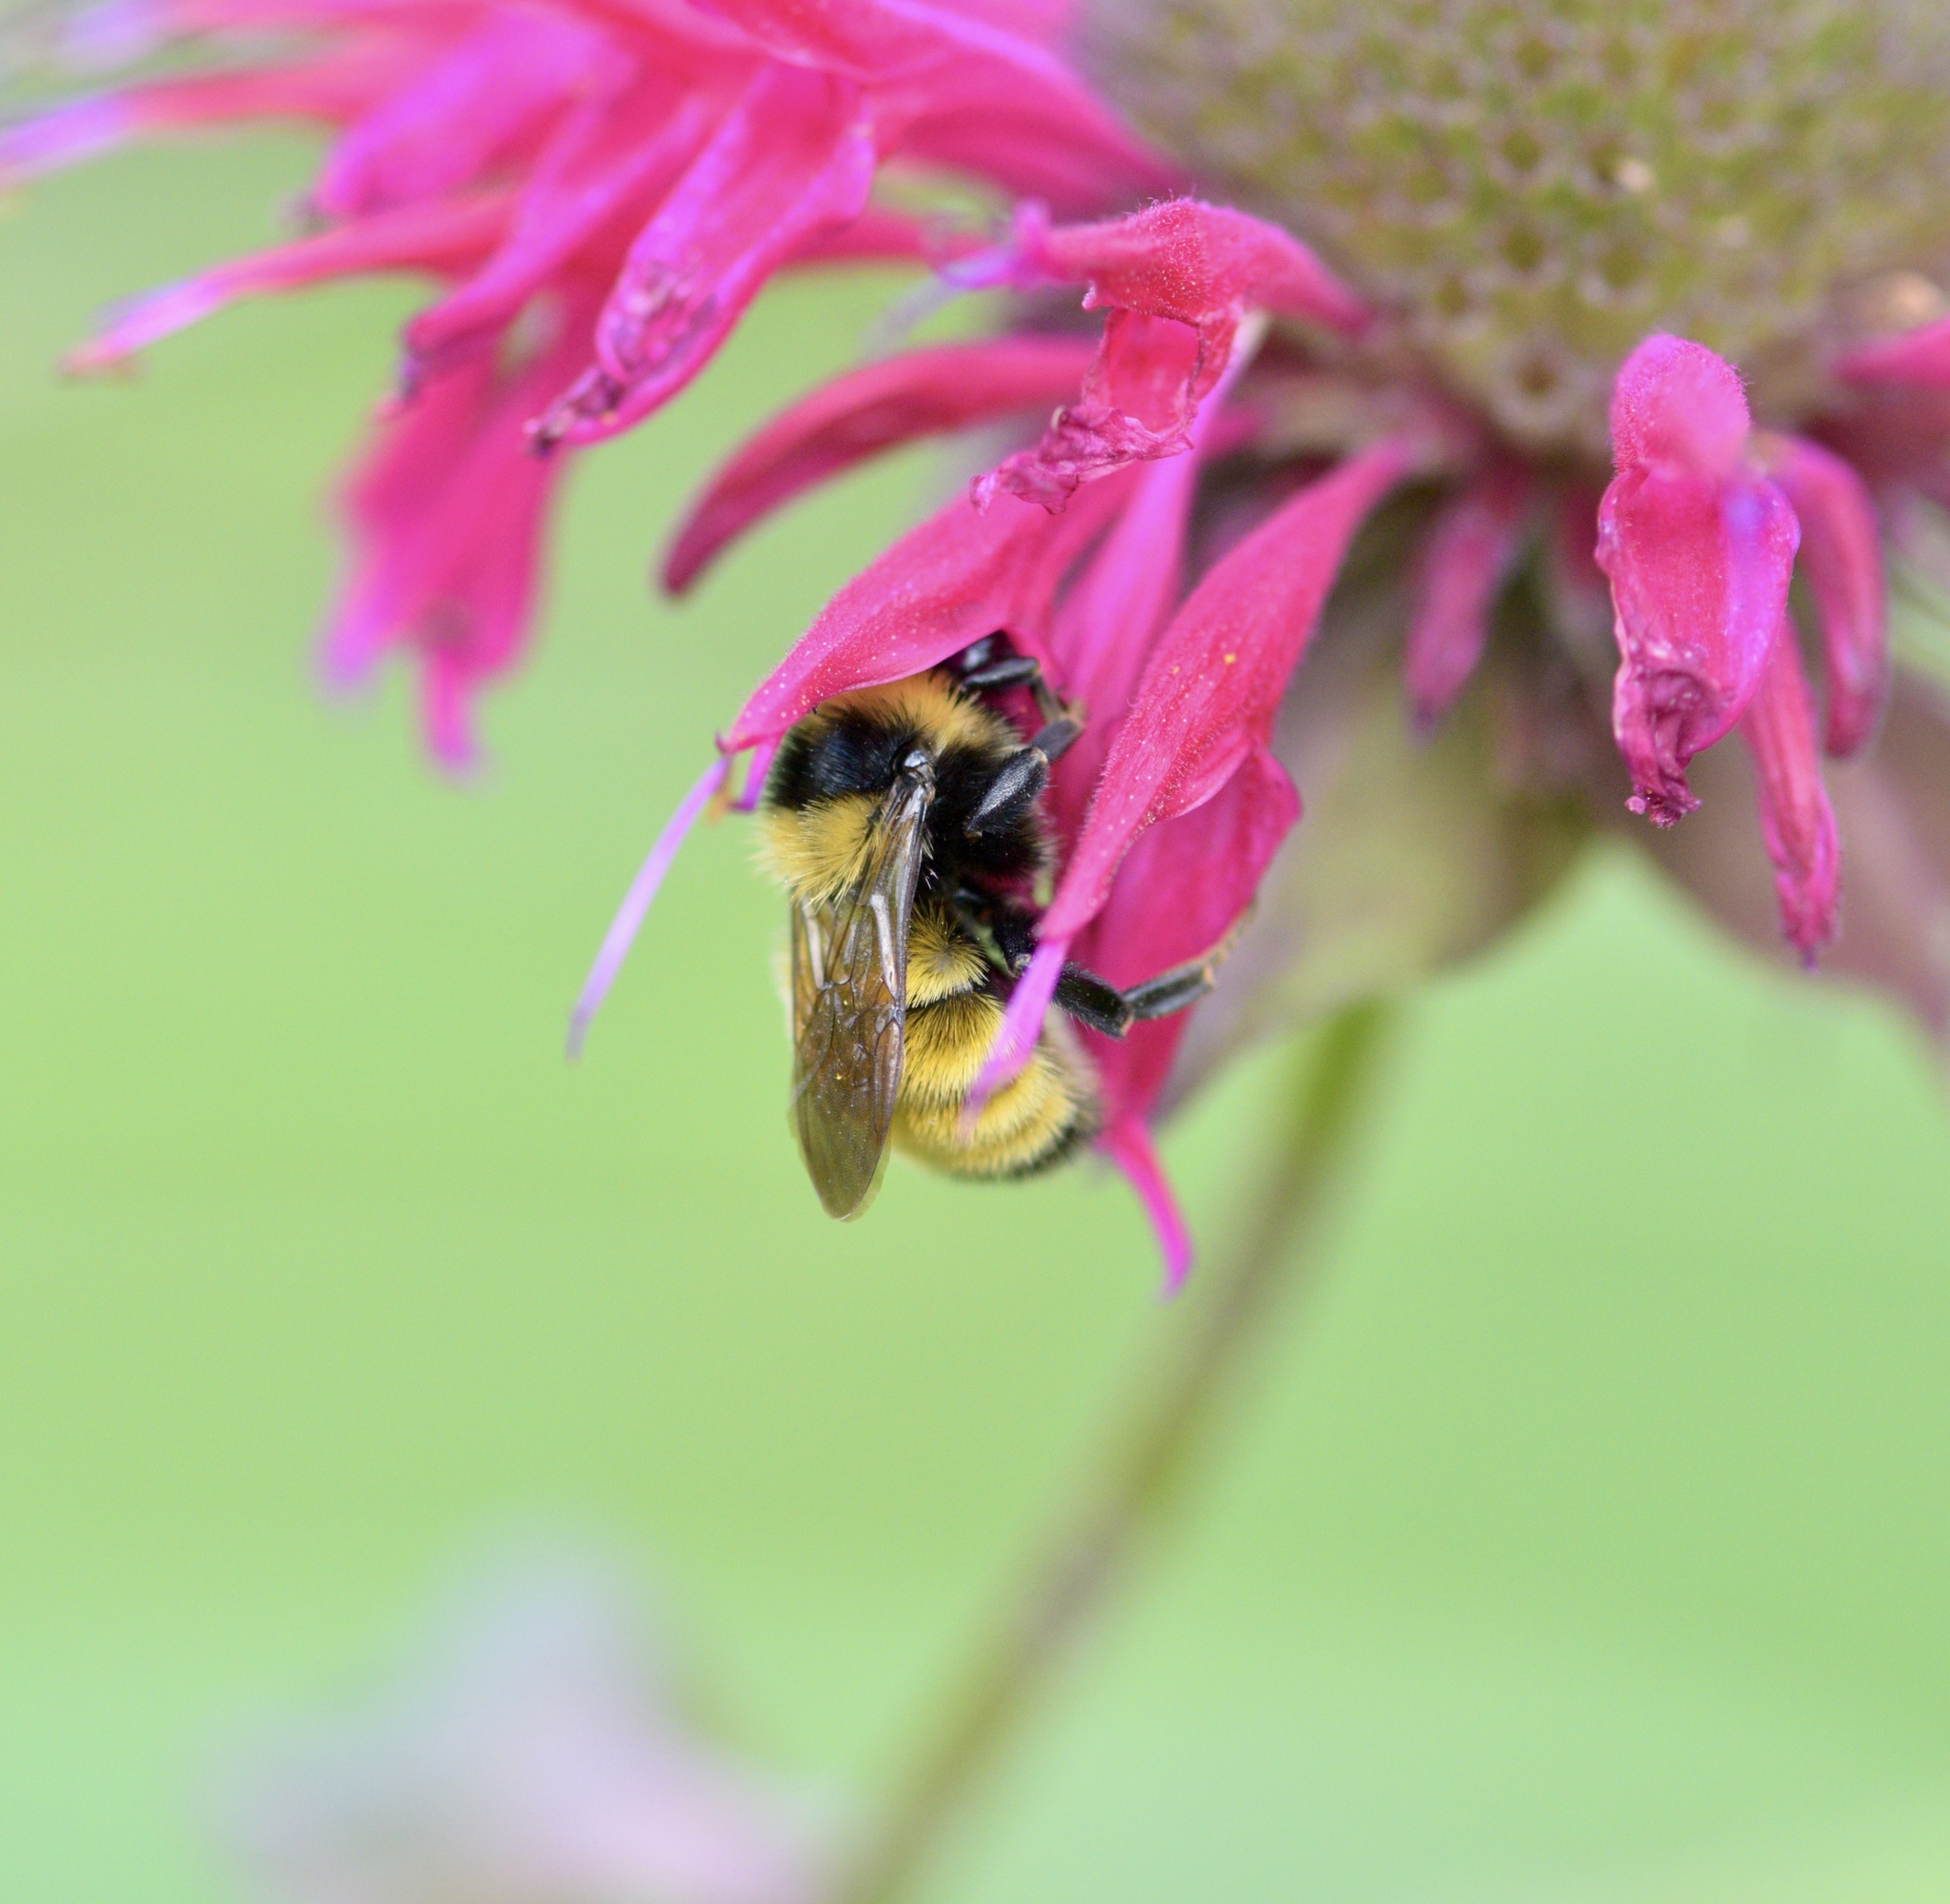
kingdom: Animalia
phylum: Arthropoda
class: Insecta
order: Hymenoptera
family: Apidae
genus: Bombus
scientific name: Bombus borealis
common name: Northern amber bumble bee
